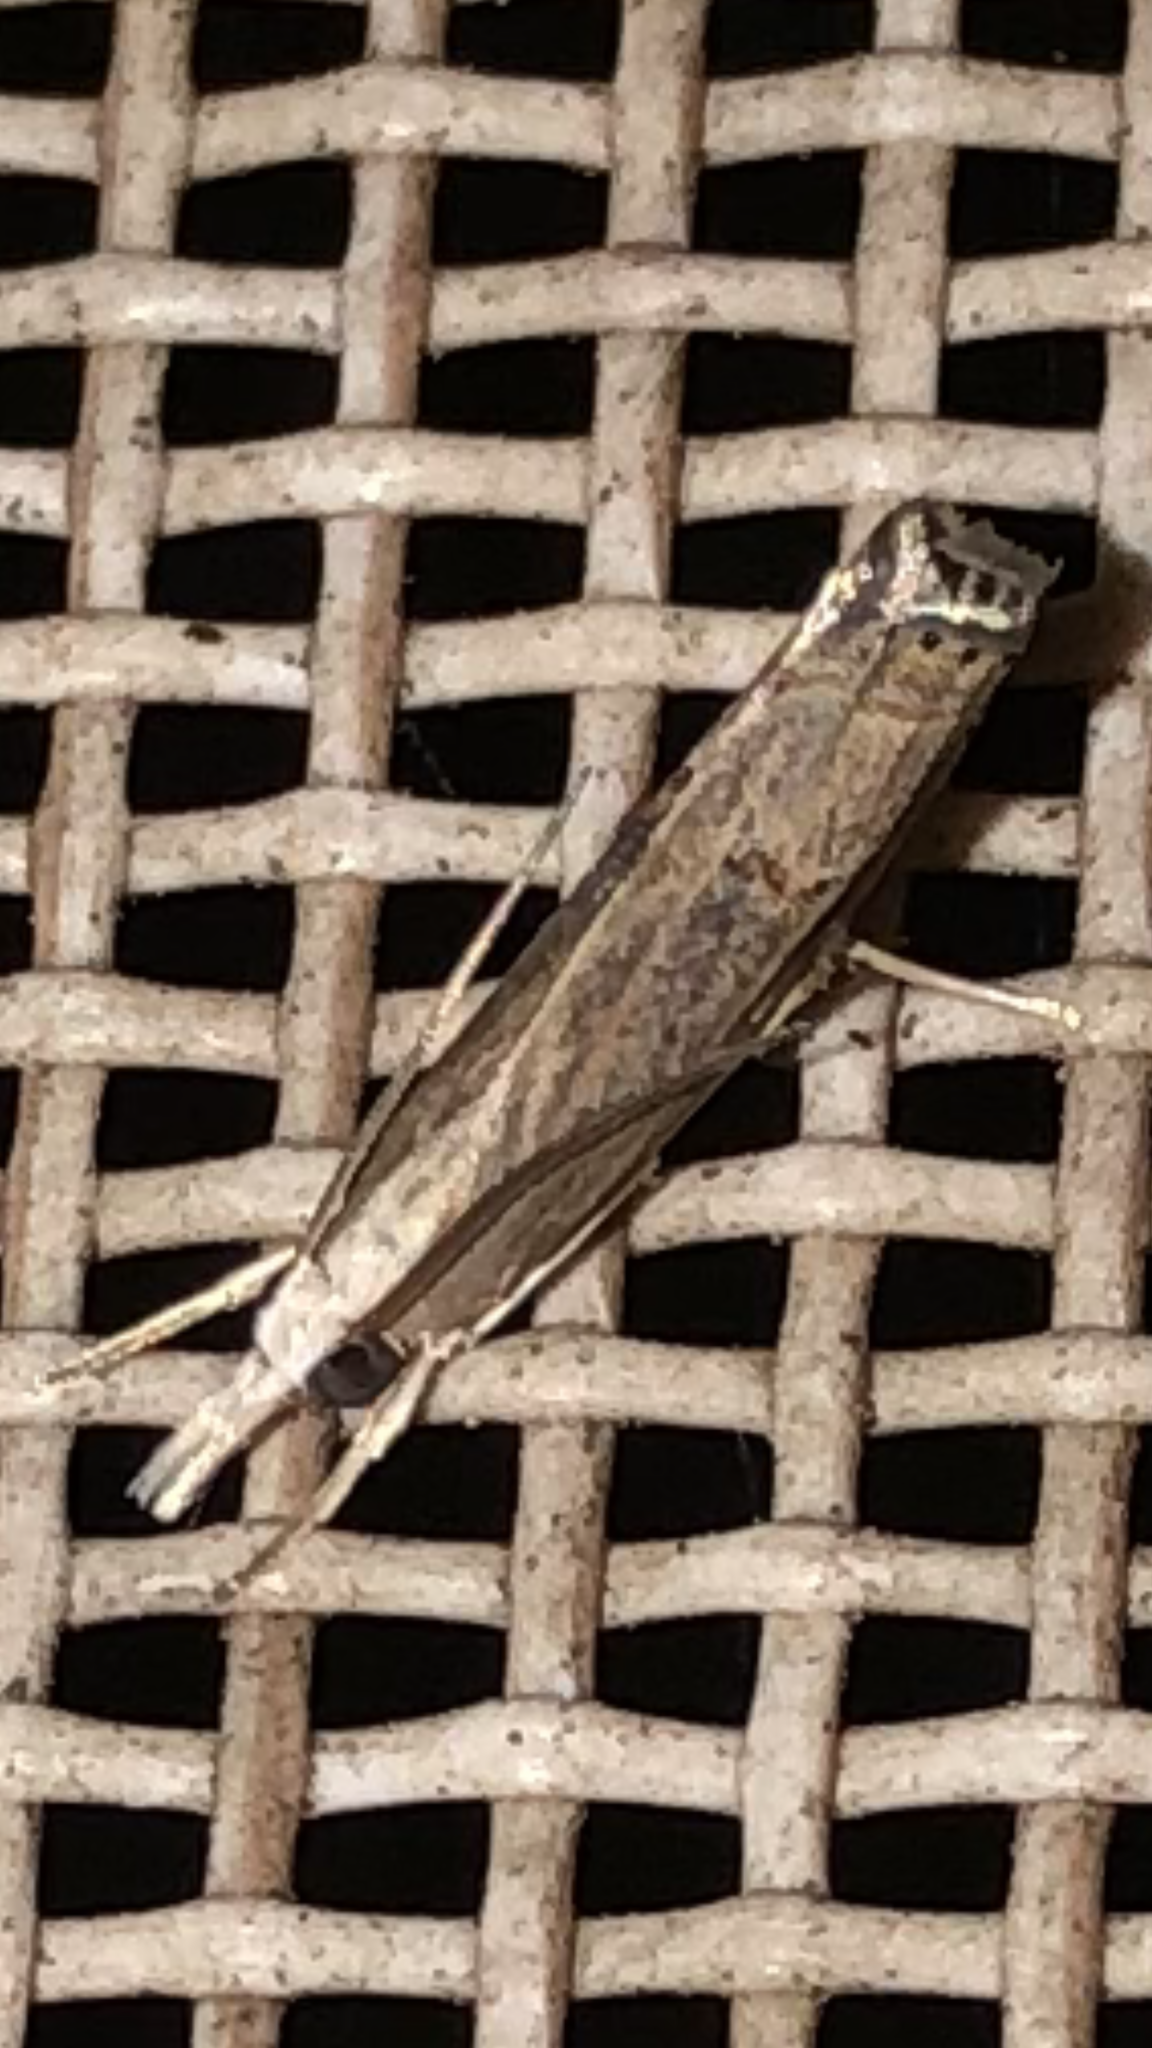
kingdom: Animalia
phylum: Arthropoda
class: Insecta
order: Lepidoptera
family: Crambidae
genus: Parapediasia
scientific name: Parapediasia teterellus
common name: Bluegrass webworm moth
